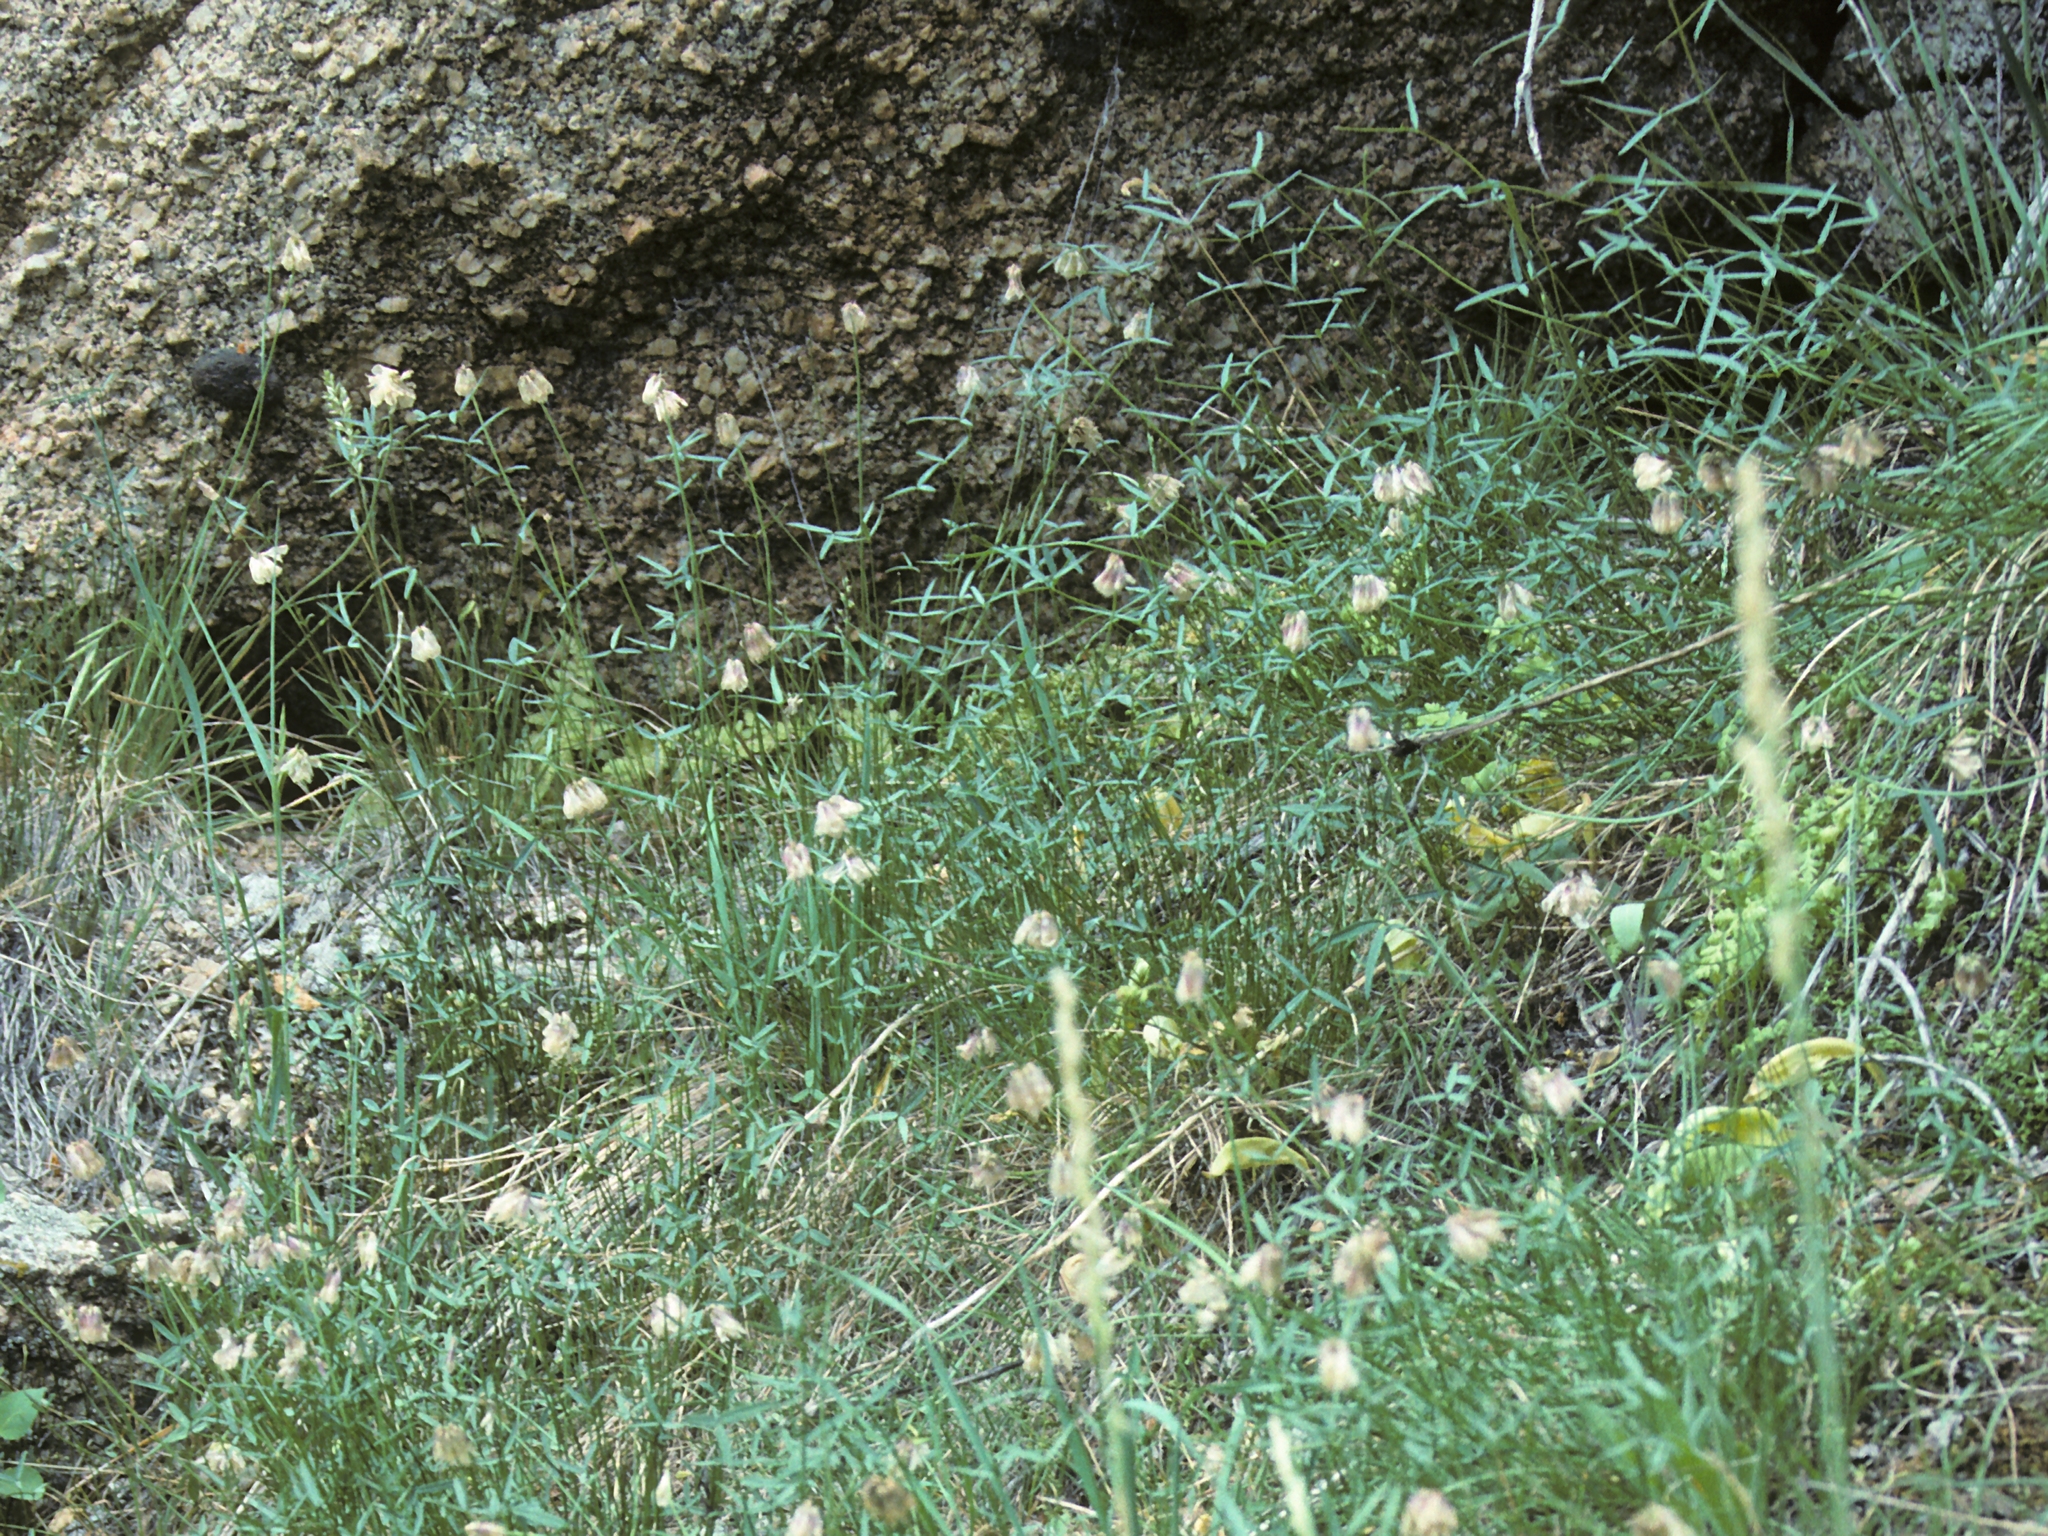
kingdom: Plantae
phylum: Tracheophyta
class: Magnoliopsida
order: Fabales
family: Fabaceae
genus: Trifolium
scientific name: Trifolium dedeckerae
